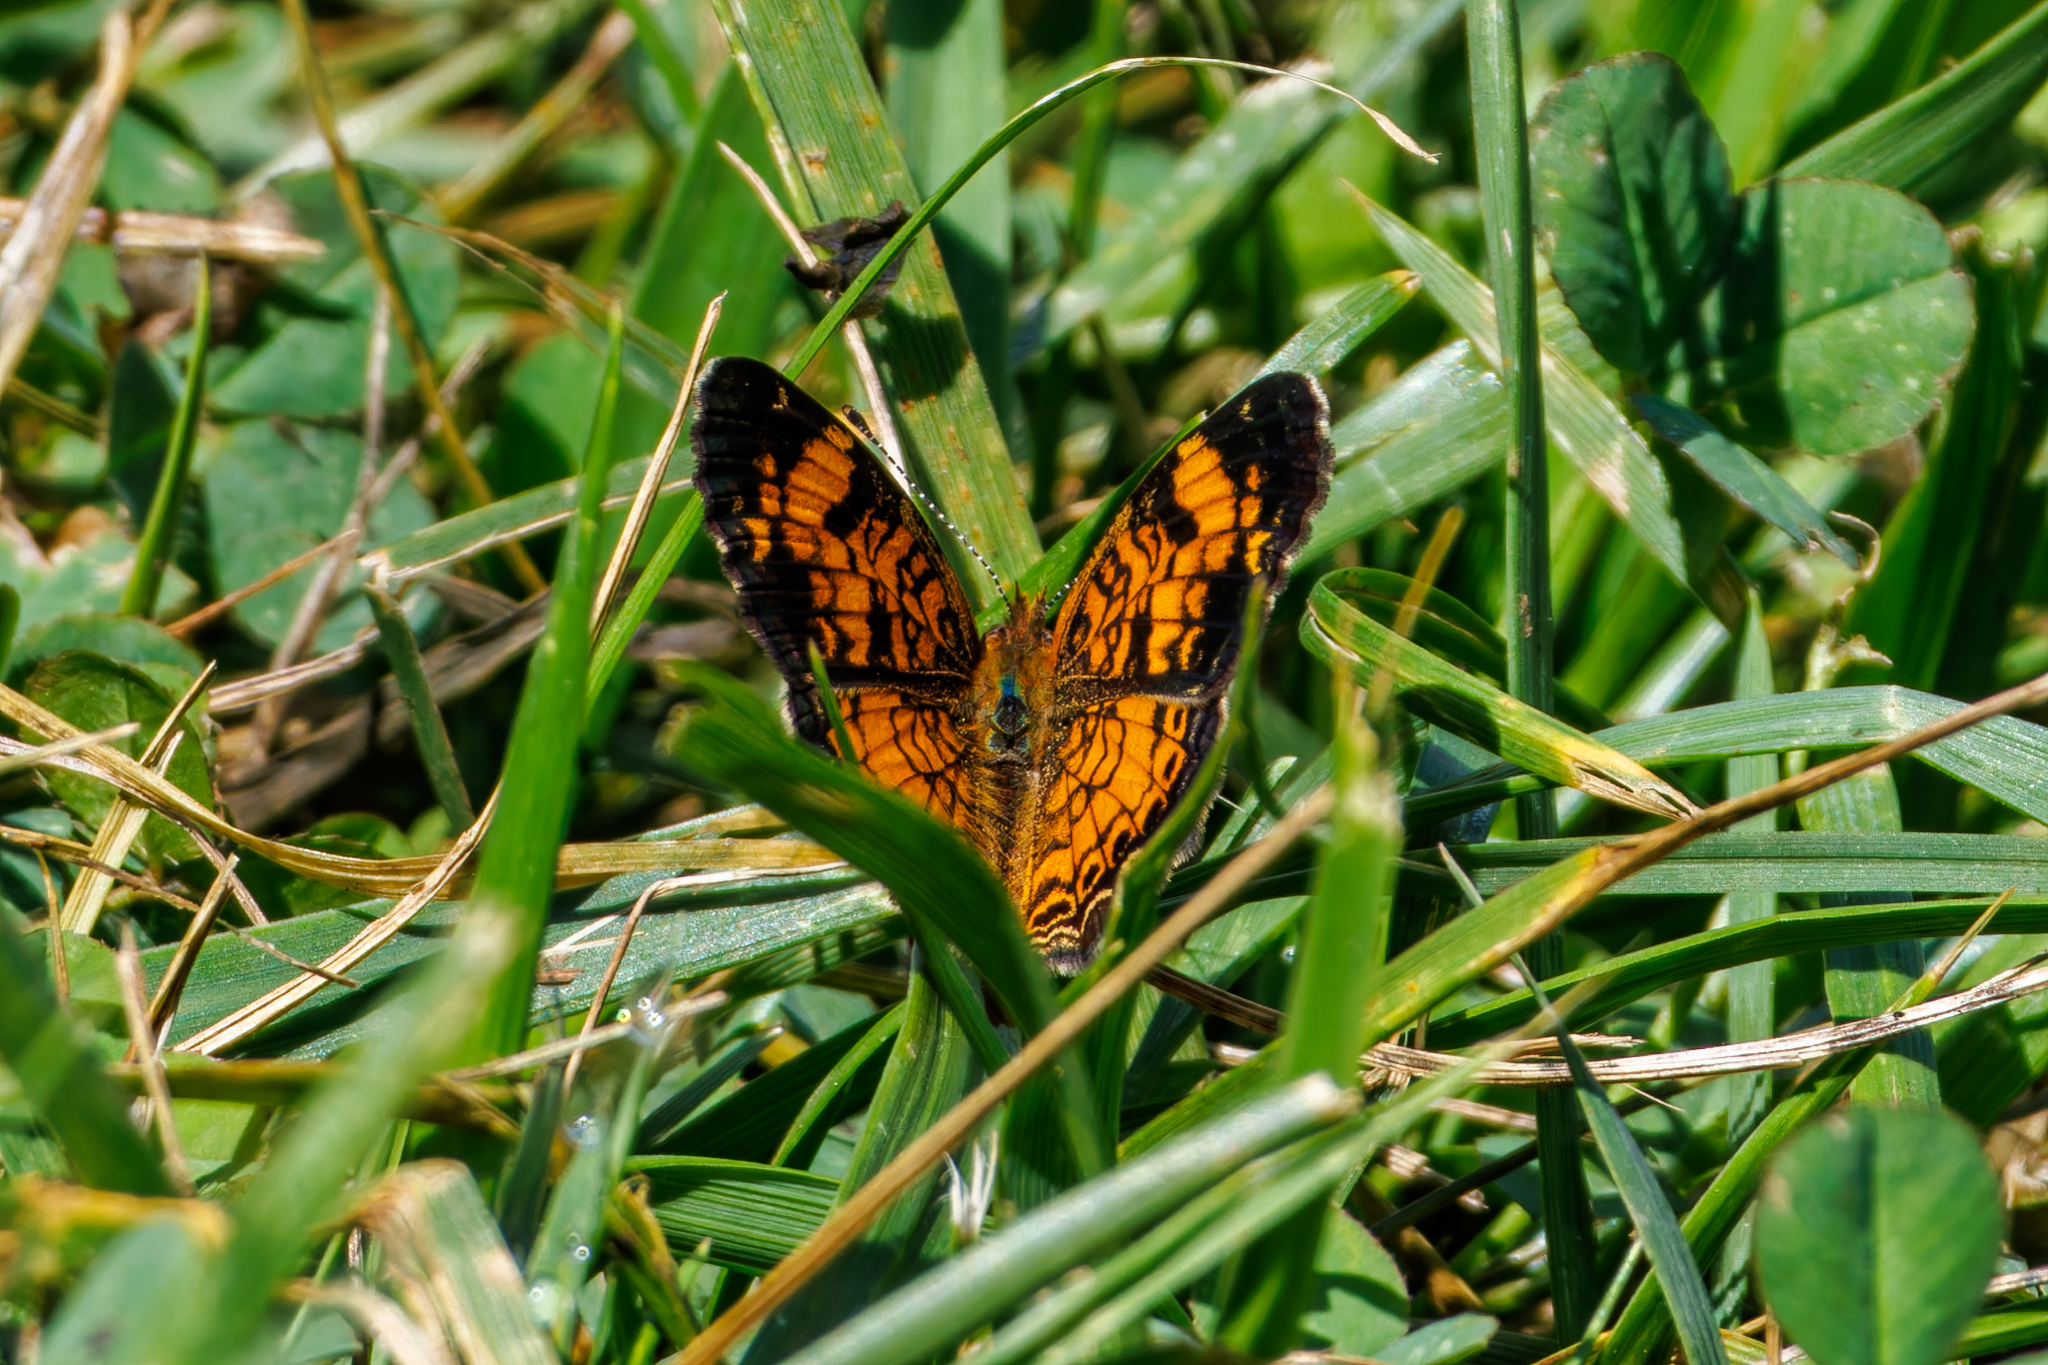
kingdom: Animalia
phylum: Arthropoda
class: Insecta
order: Lepidoptera
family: Nymphalidae
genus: Phyciodes
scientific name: Phyciodes tharos
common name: Pearl crescent
